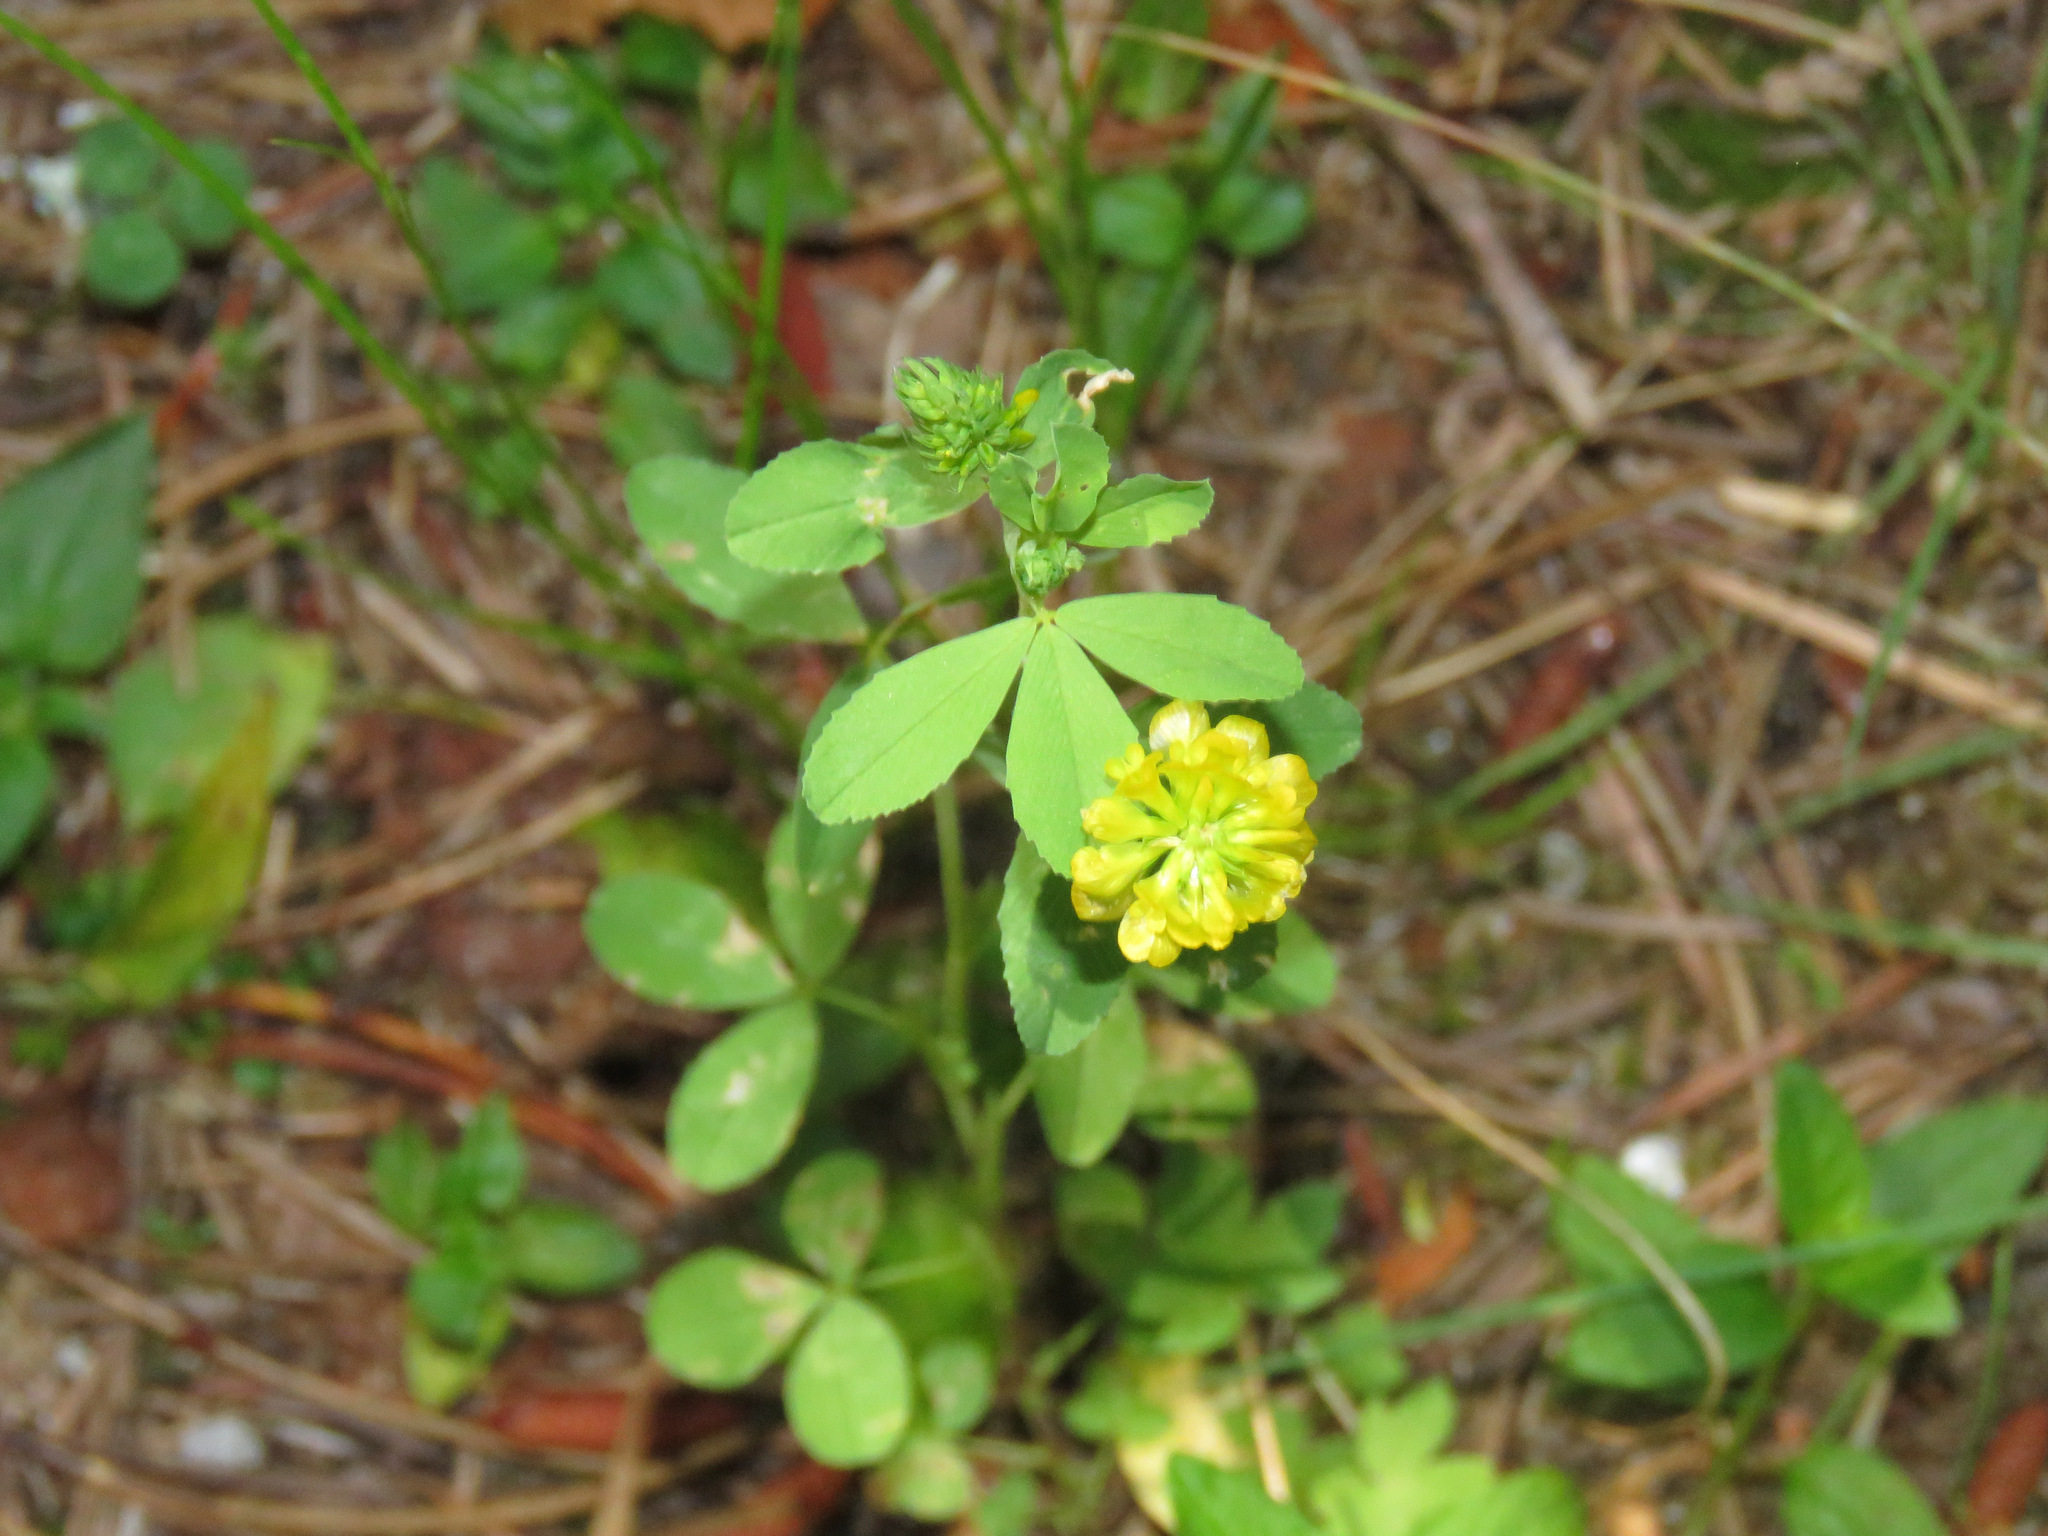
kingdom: Plantae
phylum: Tracheophyta
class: Magnoliopsida
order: Fabales
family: Fabaceae
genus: Trifolium
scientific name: Trifolium aureum
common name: Golden clover
